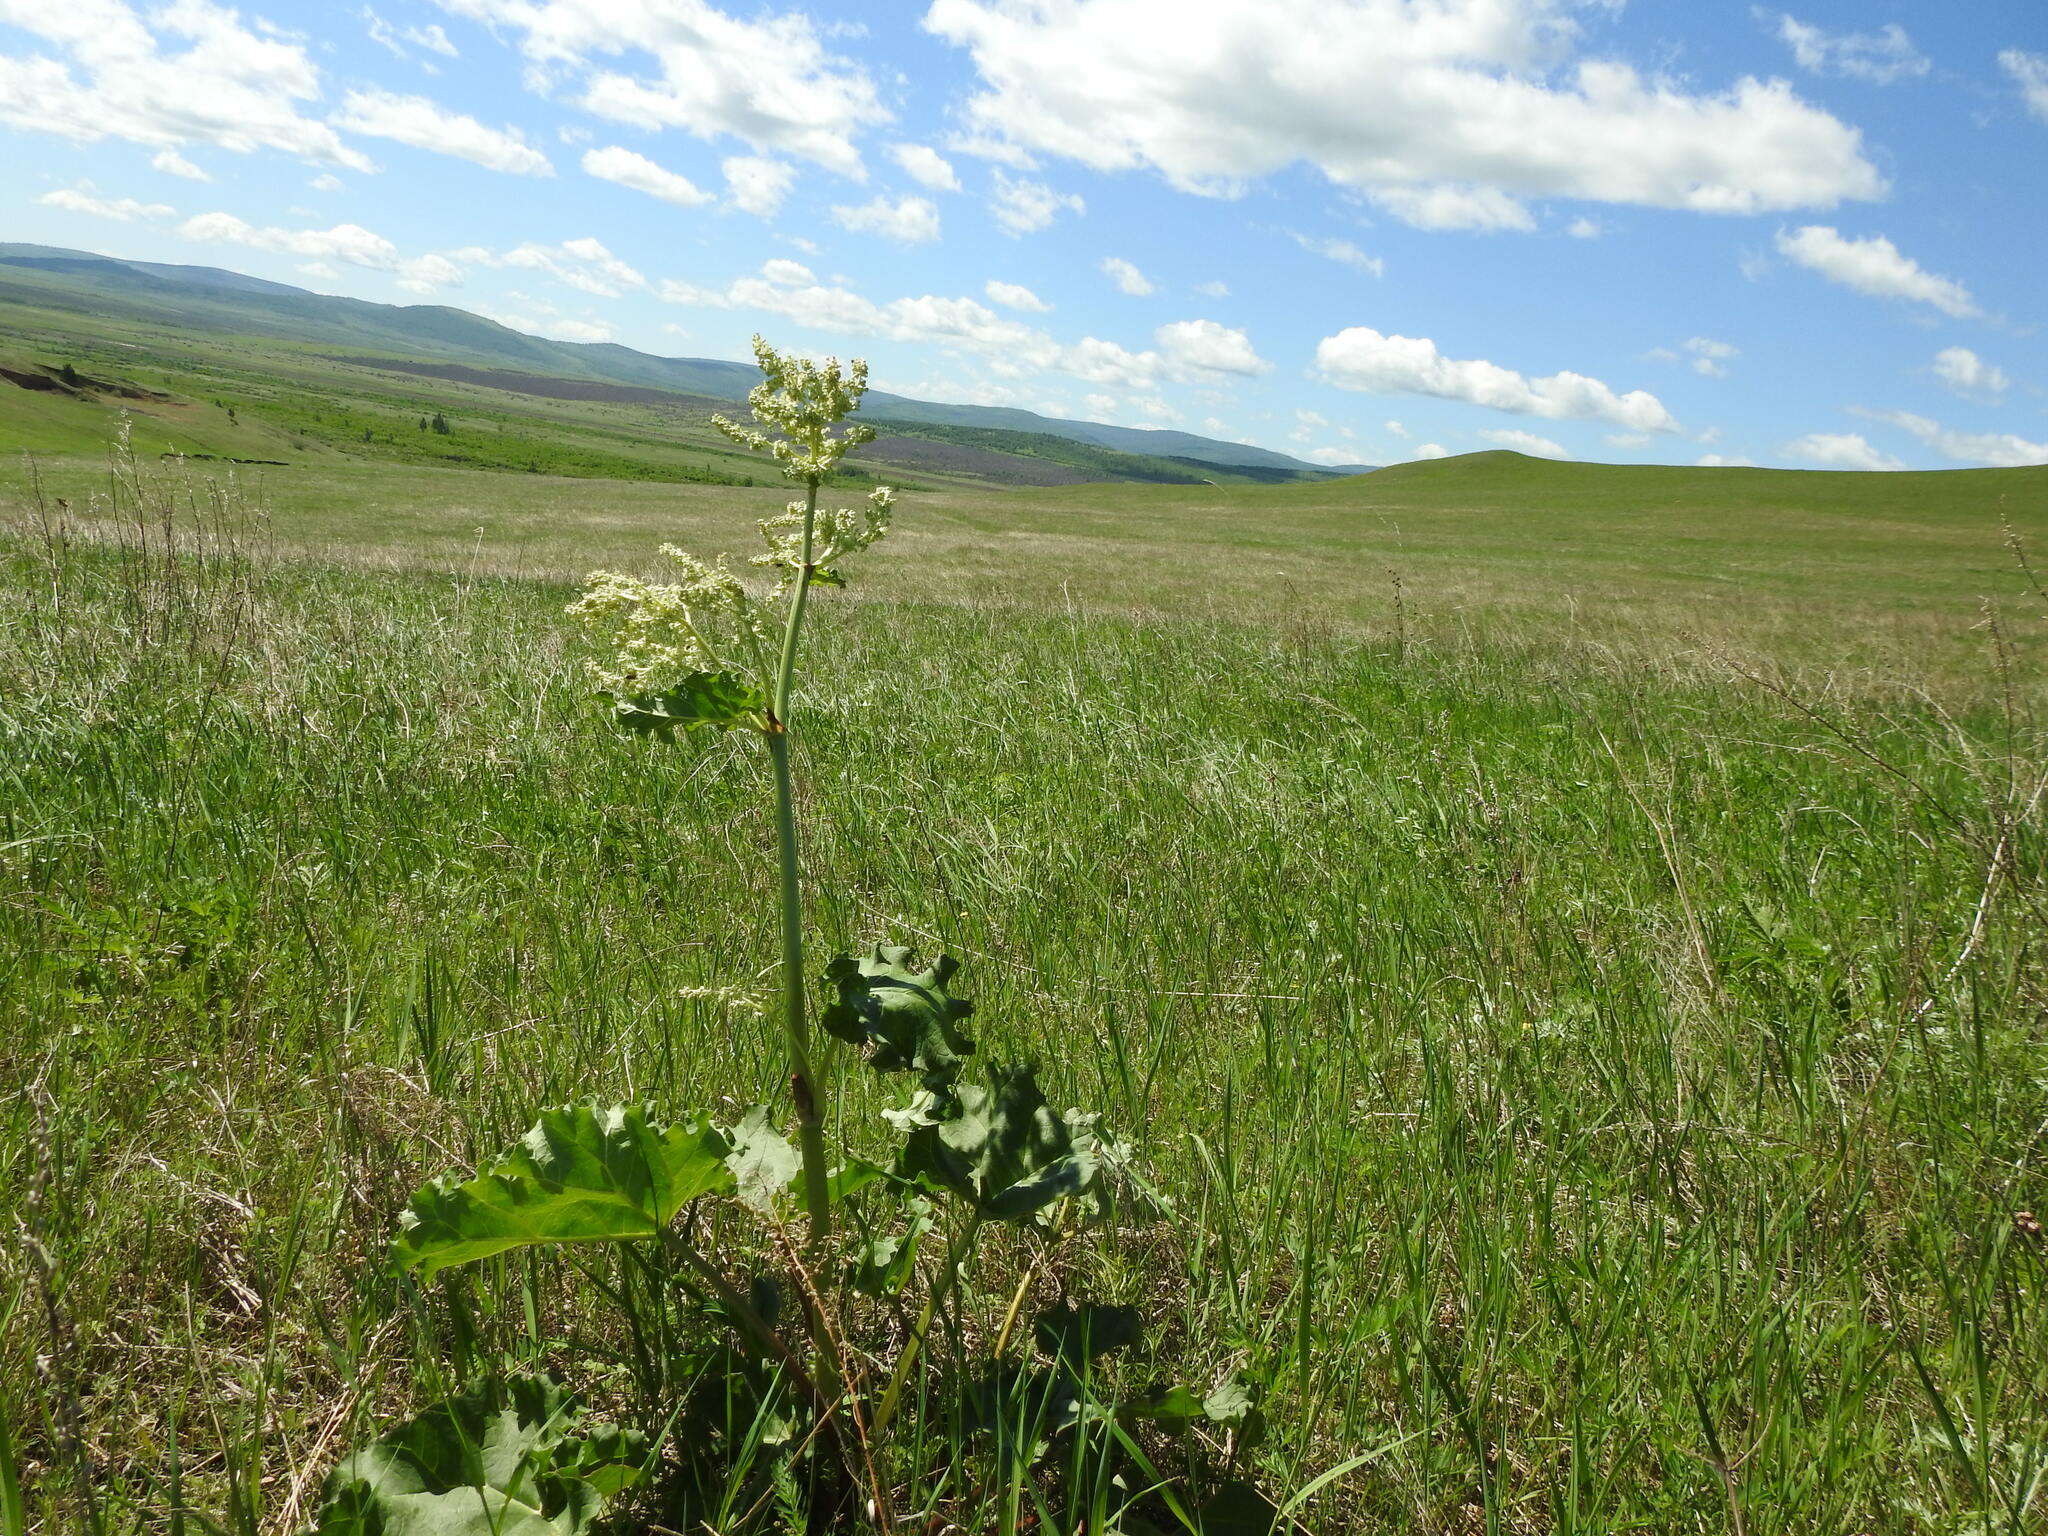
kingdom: Plantae
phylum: Tracheophyta
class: Magnoliopsida
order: Caryophyllales
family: Polygonaceae
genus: Rheum
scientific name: Rheum rhabarbarum
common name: Garden rhubarb
